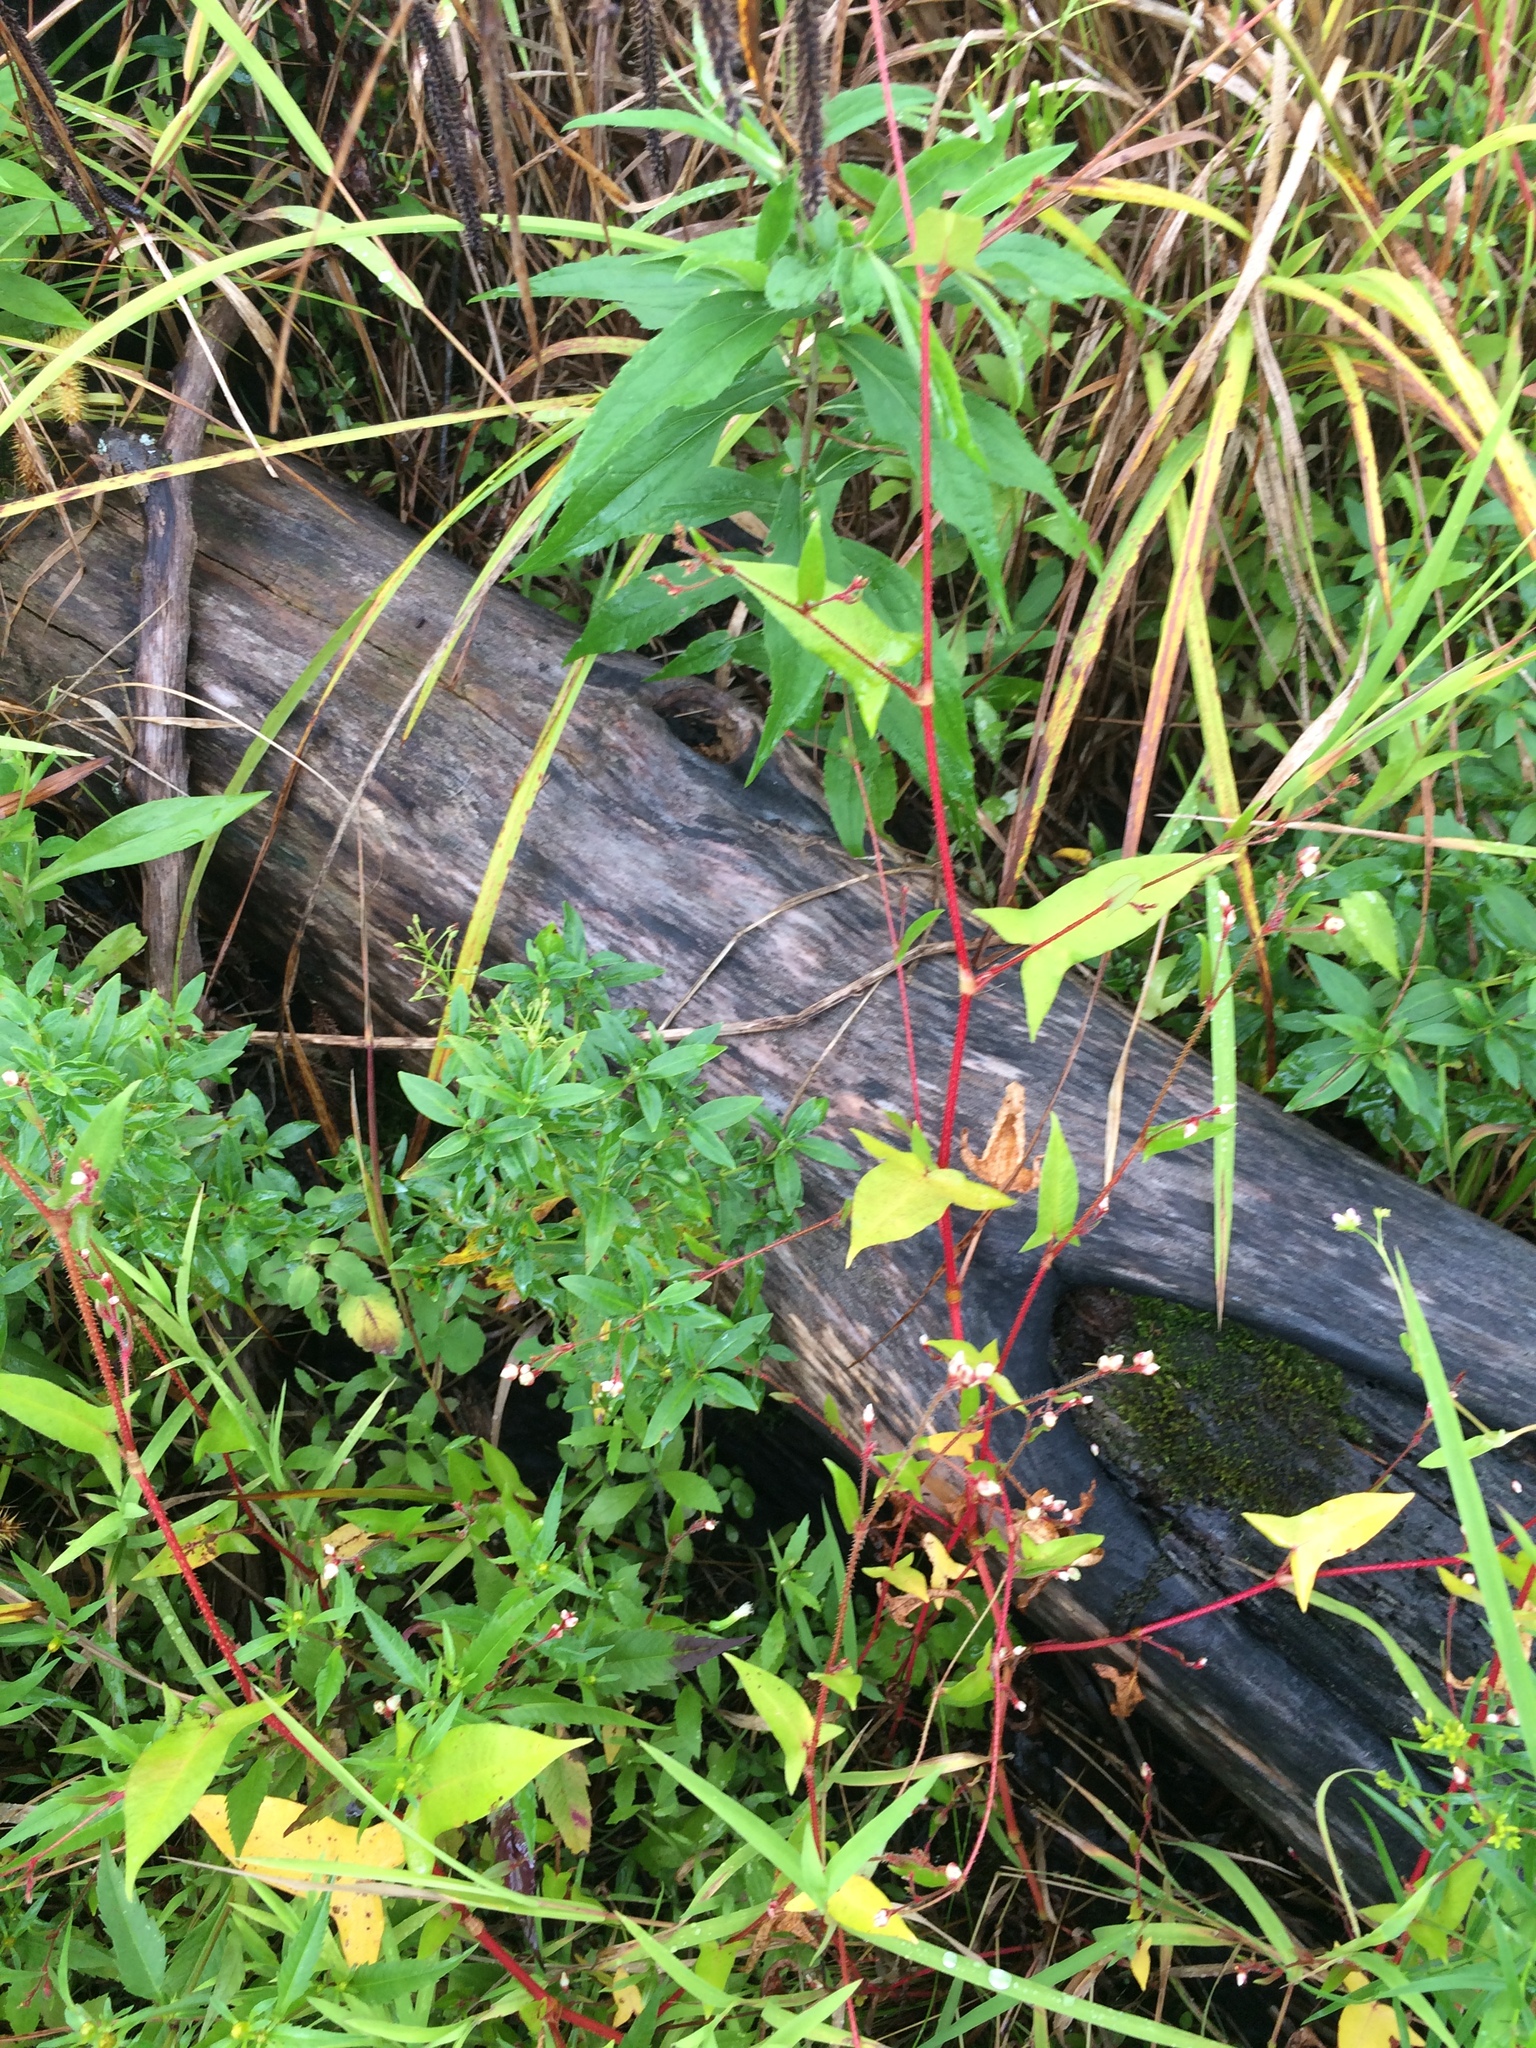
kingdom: Plantae
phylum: Tracheophyta
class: Magnoliopsida
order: Caryophyllales
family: Polygonaceae
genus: Persicaria
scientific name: Persicaria arifolia
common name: Halberd-leaved tear-thumb
